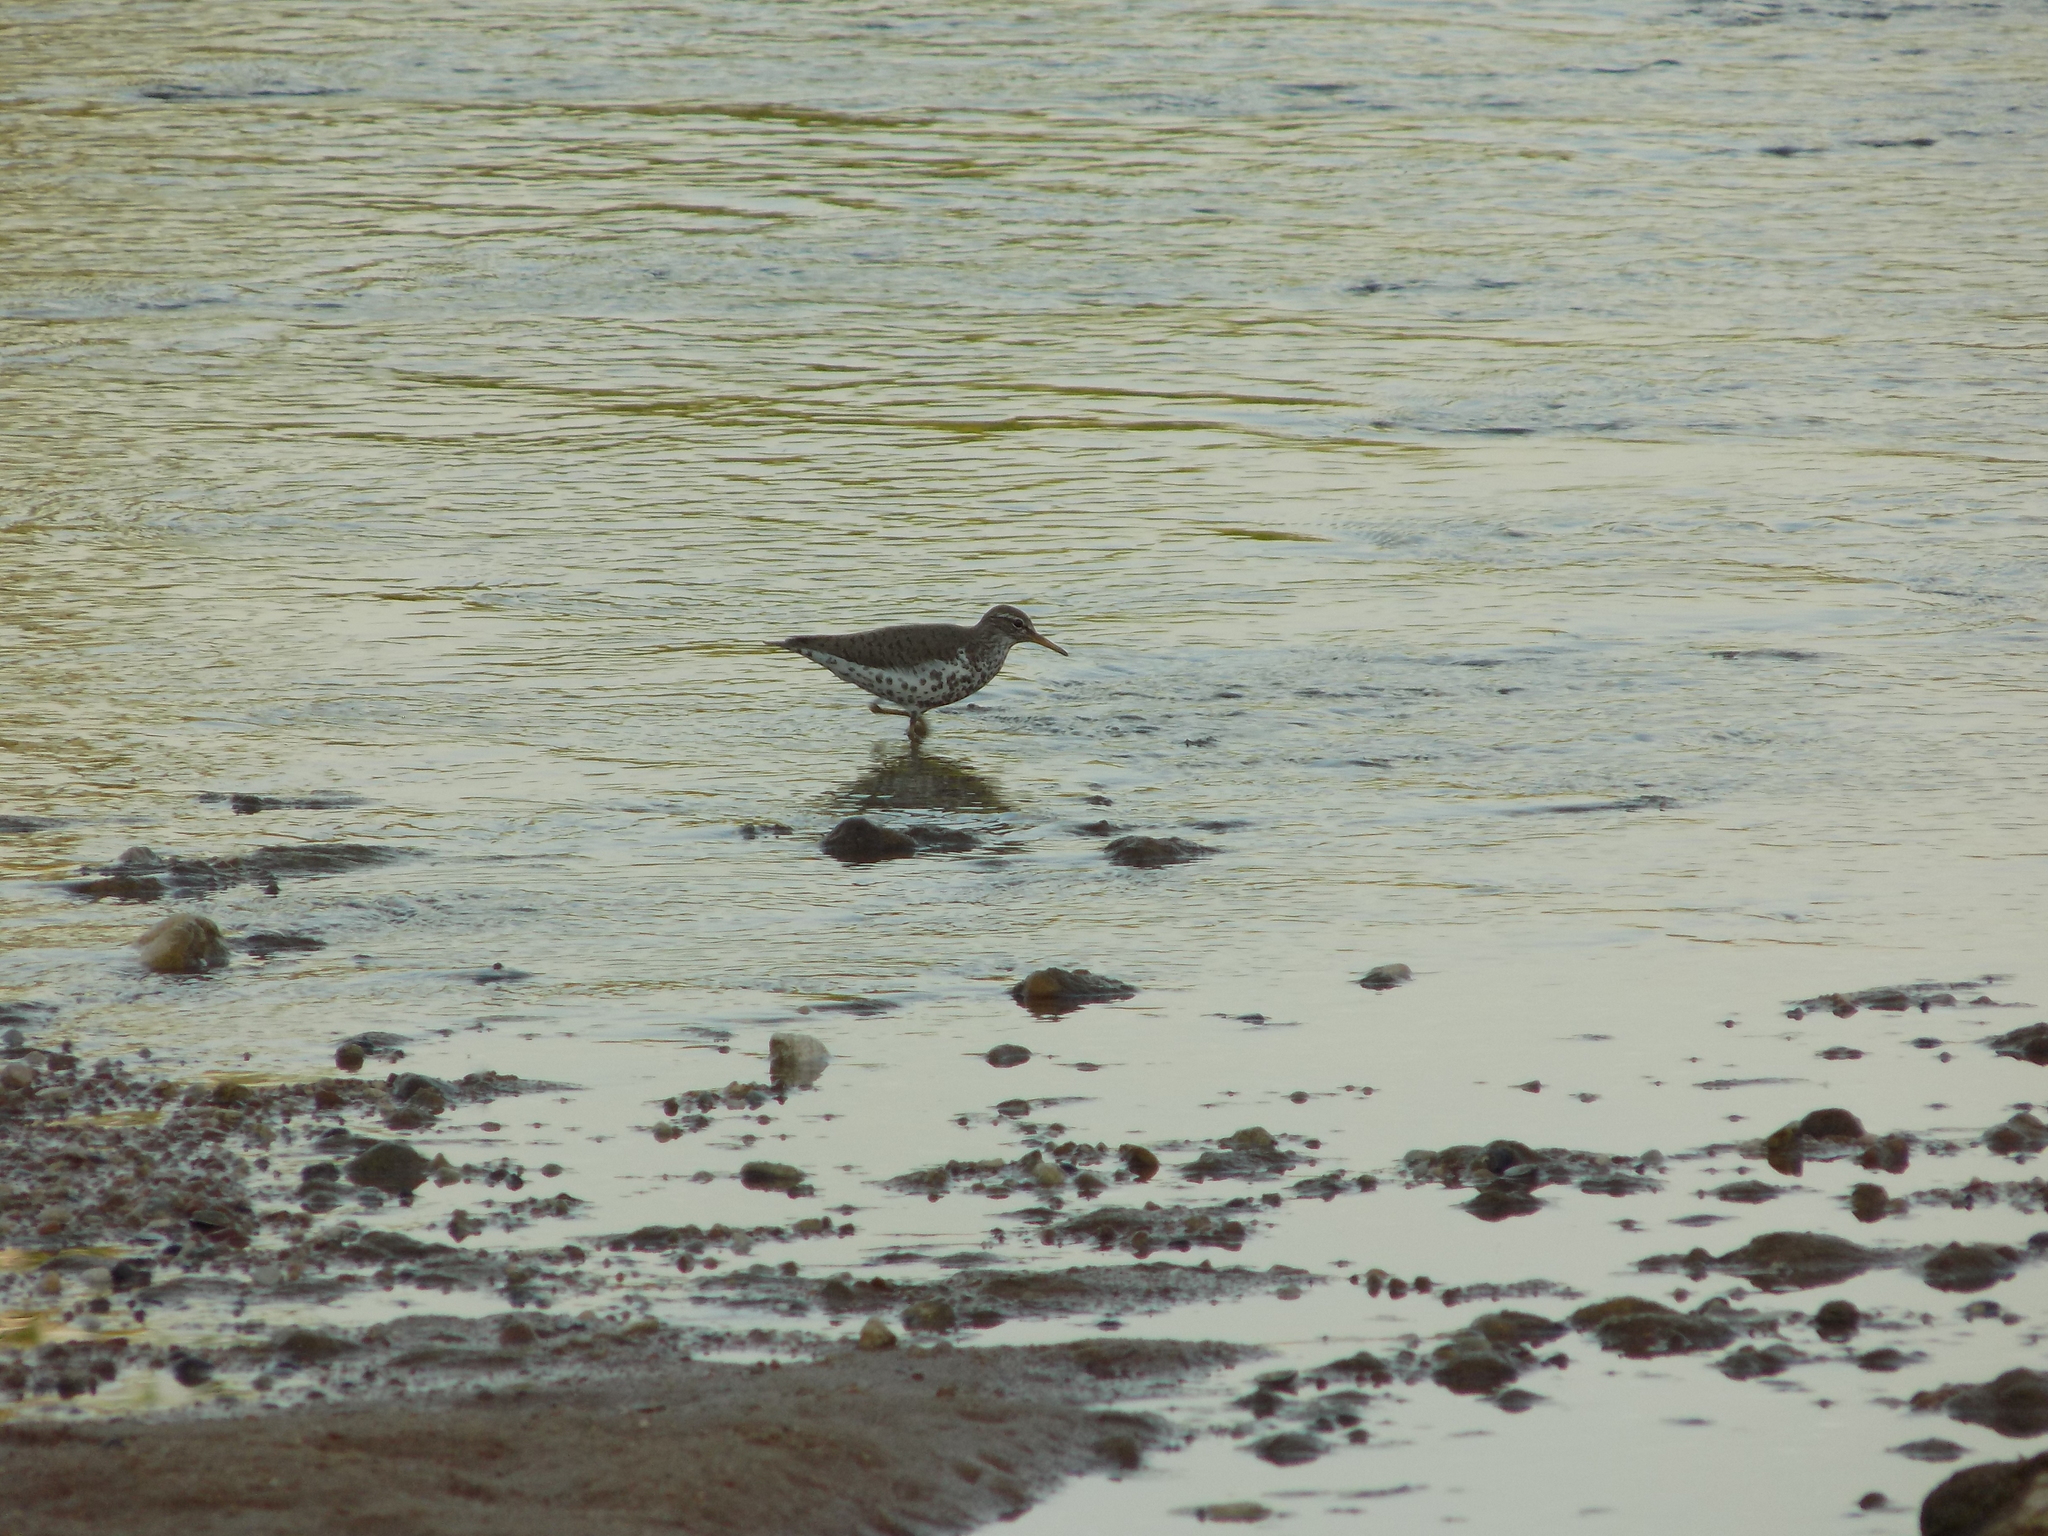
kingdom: Animalia
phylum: Chordata
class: Aves
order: Charadriiformes
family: Scolopacidae
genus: Actitis
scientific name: Actitis macularius
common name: Spotted sandpiper
